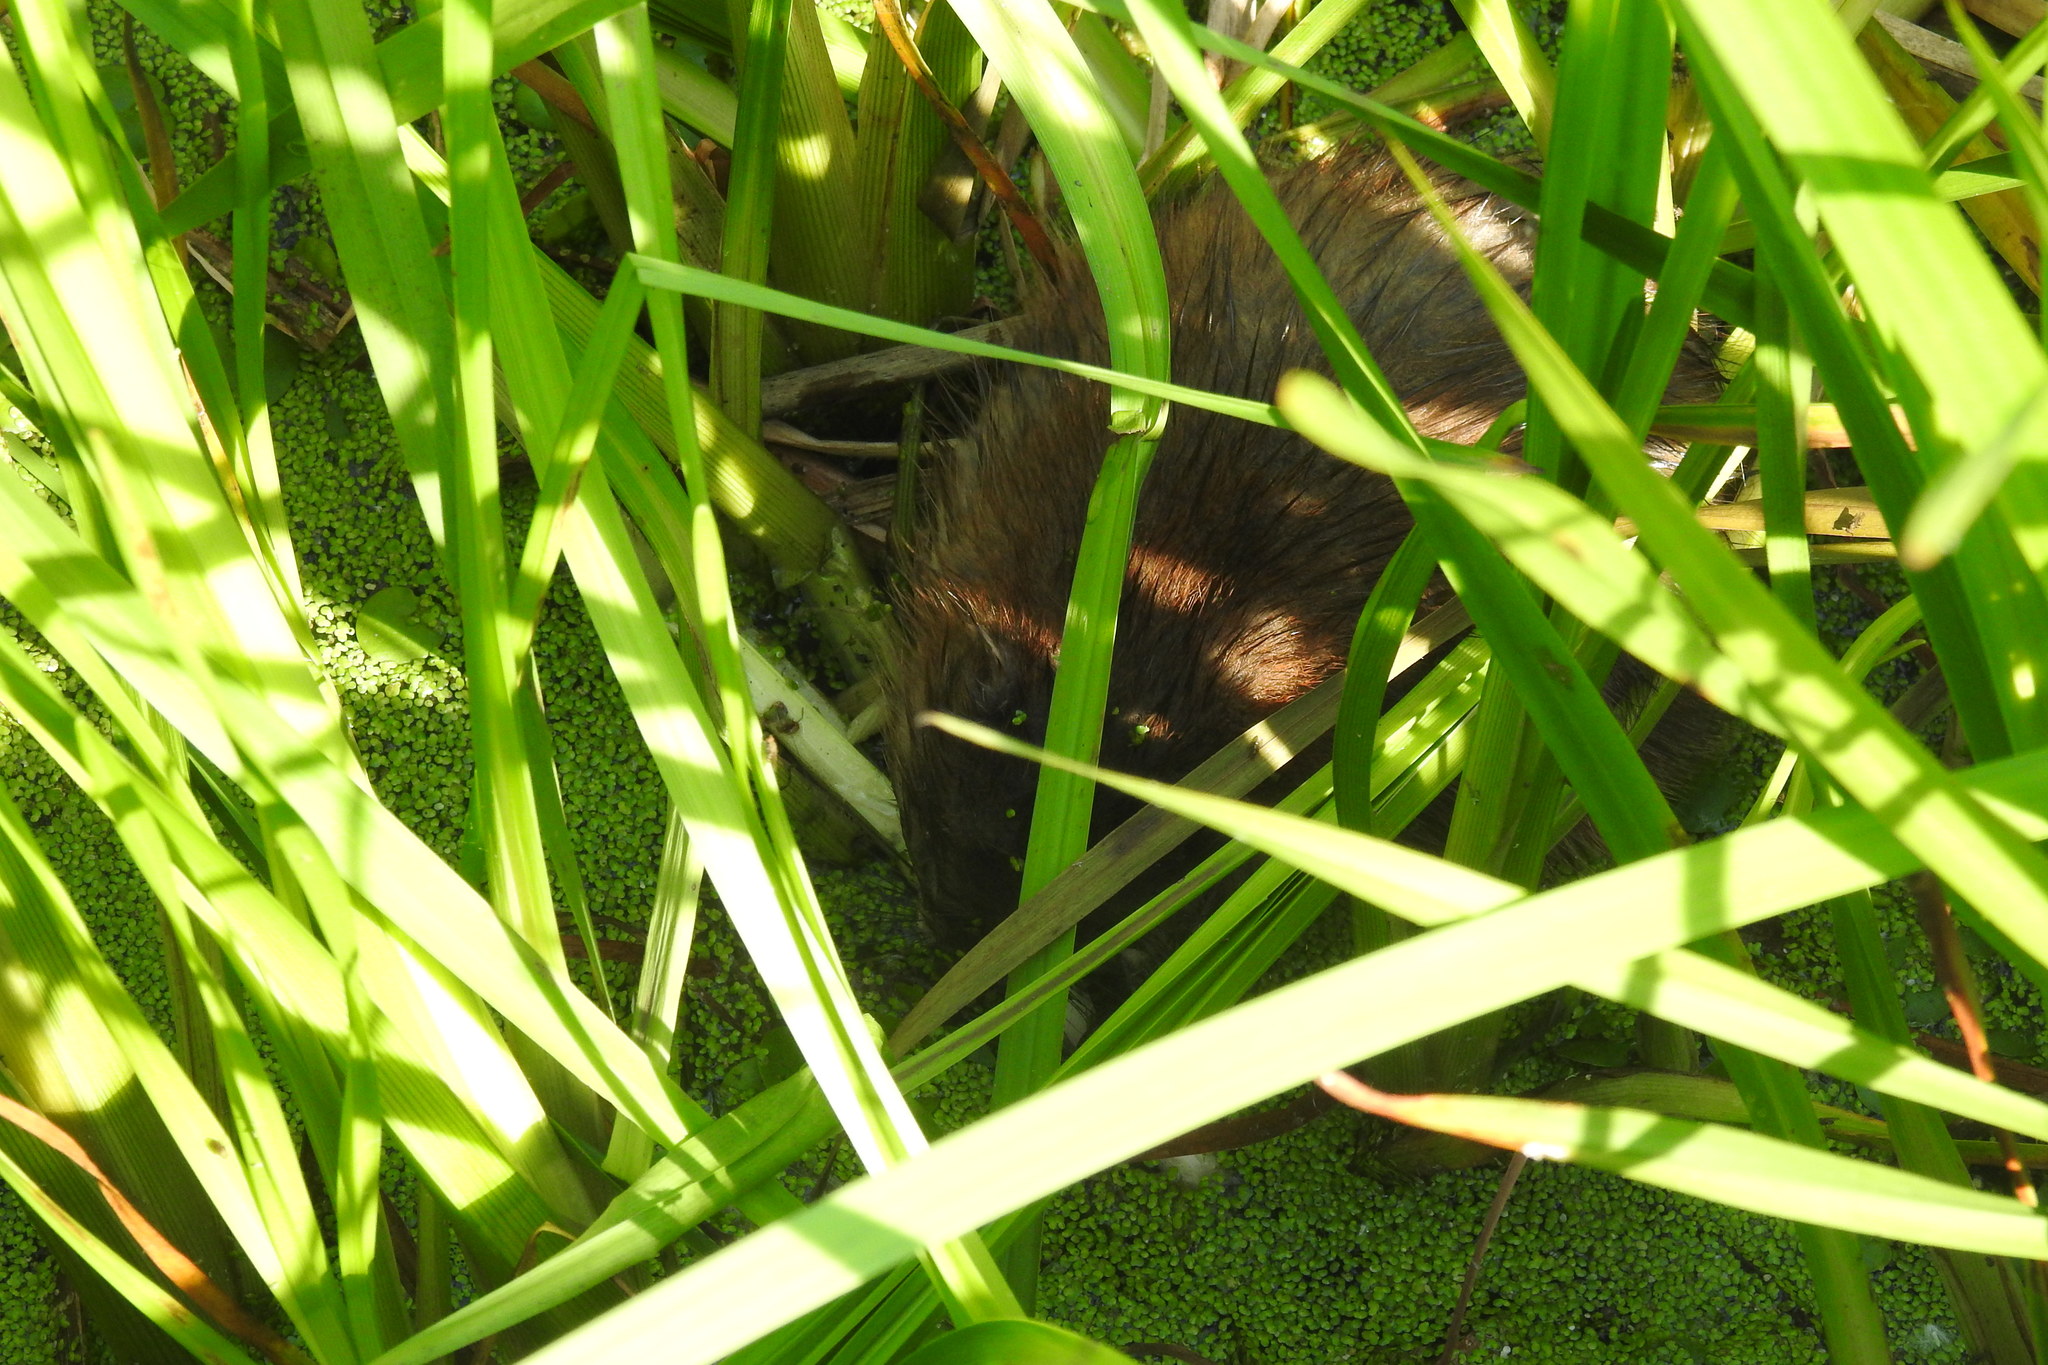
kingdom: Animalia
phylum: Chordata
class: Mammalia
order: Rodentia
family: Cricetidae
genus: Ondatra
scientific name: Ondatra zibethicus
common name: Muskrat
